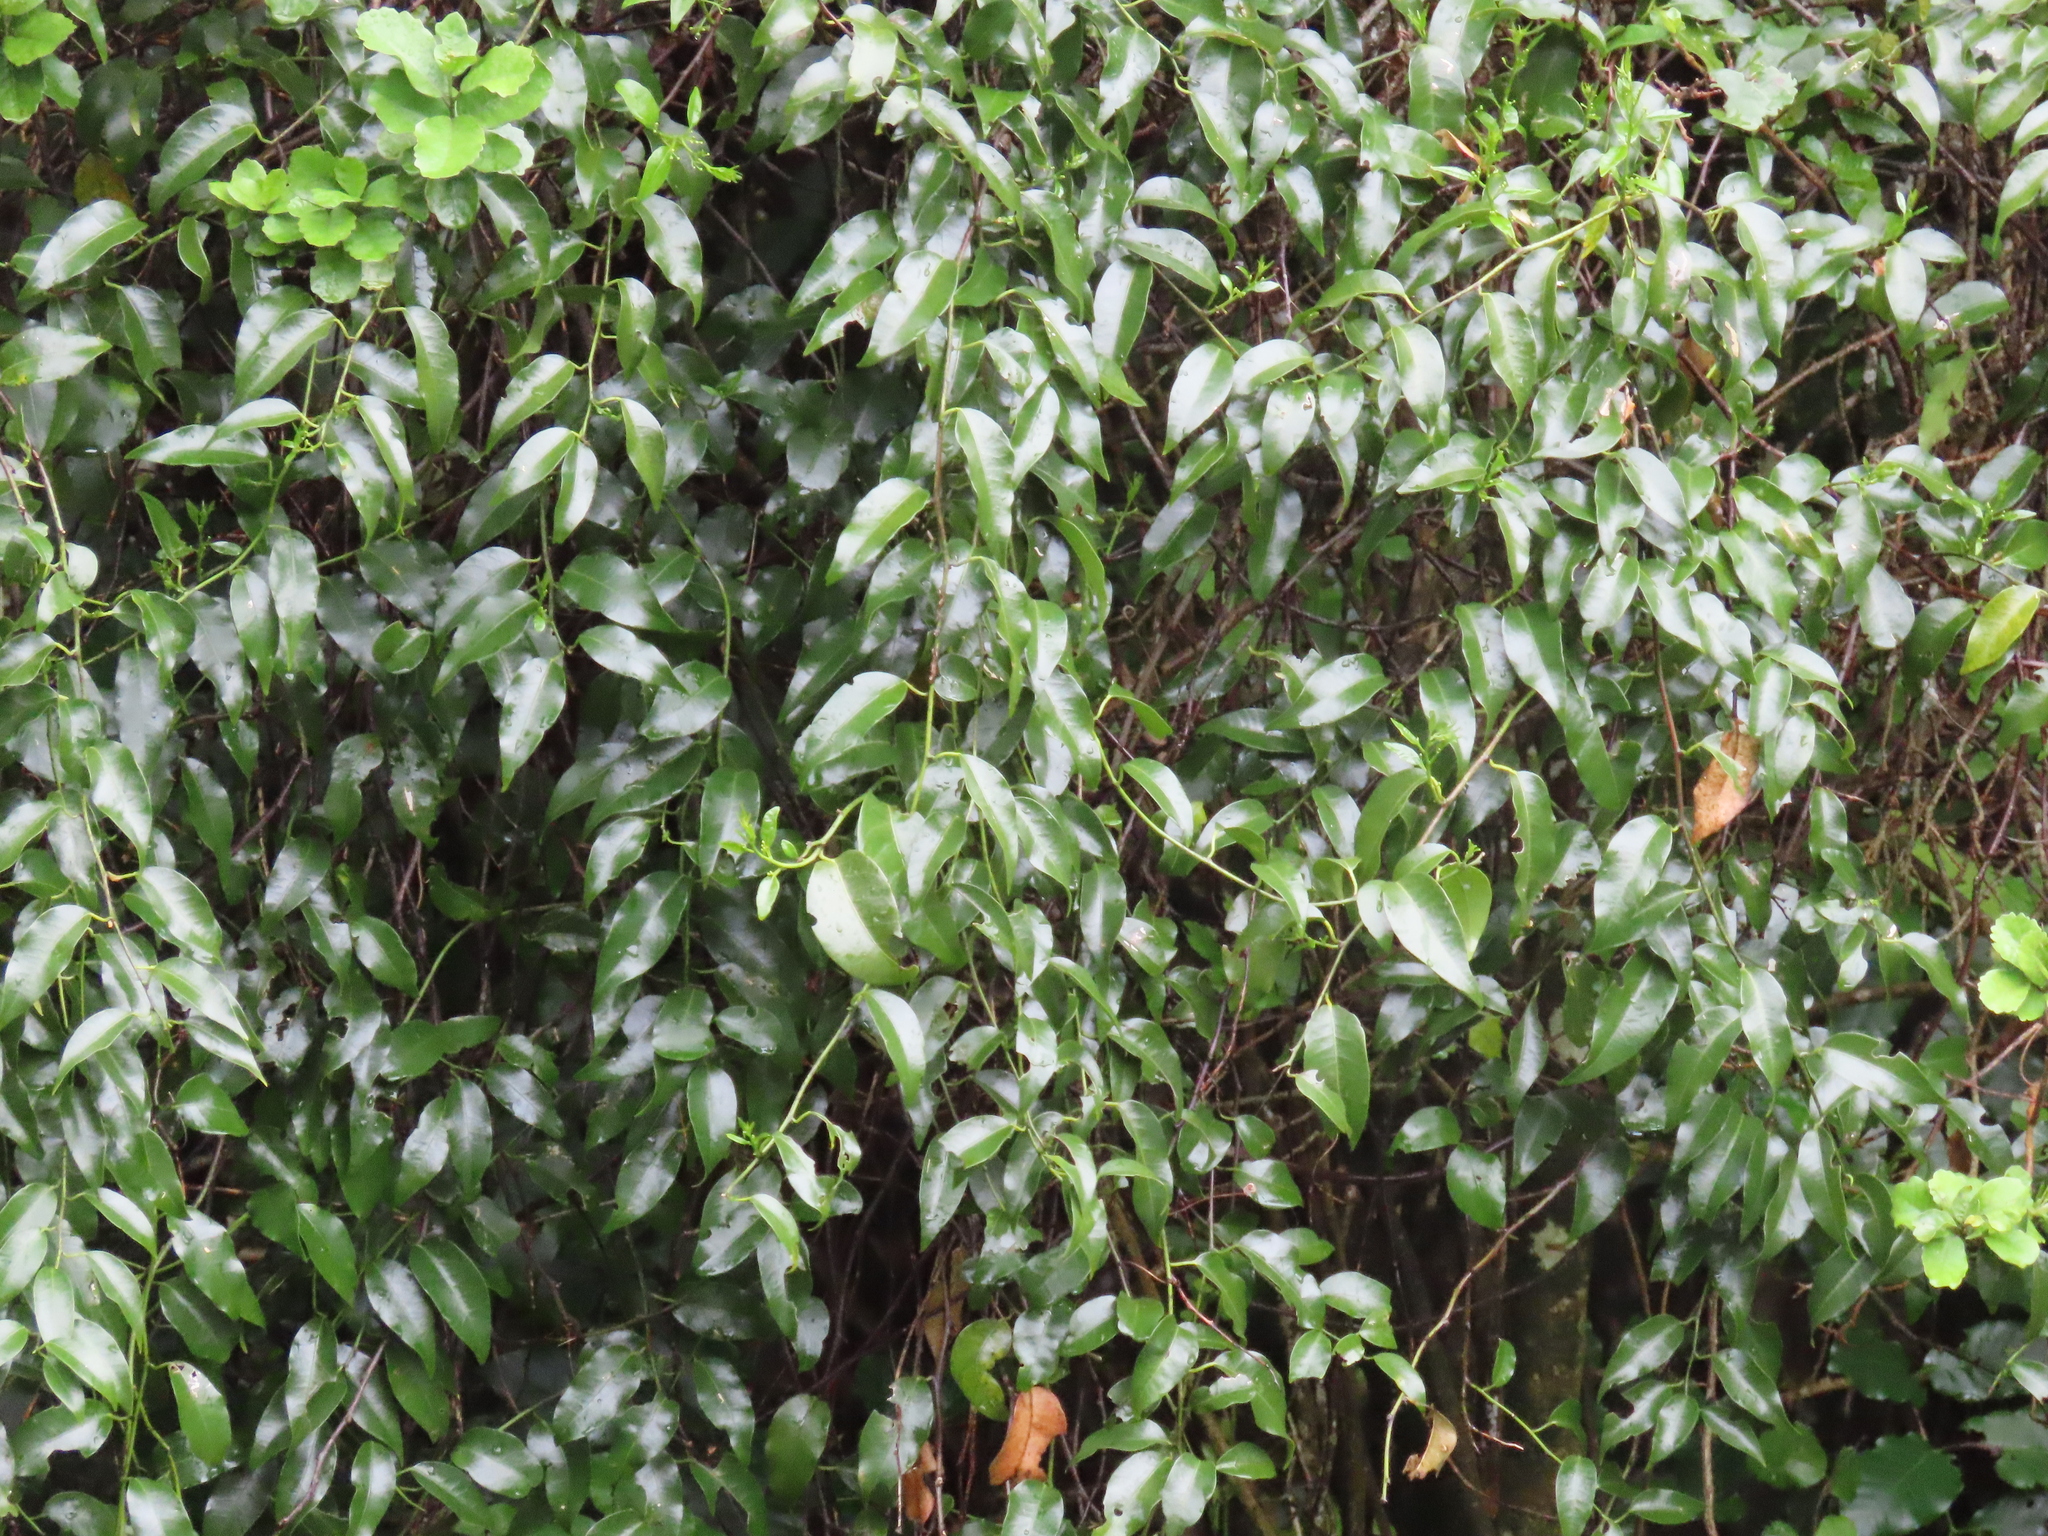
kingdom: Plantae
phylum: Tracheophyta
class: Magnoliopsida
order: Malpighiales
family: Passifloraceae
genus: Passiflora
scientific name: Passiflora tetrandra
